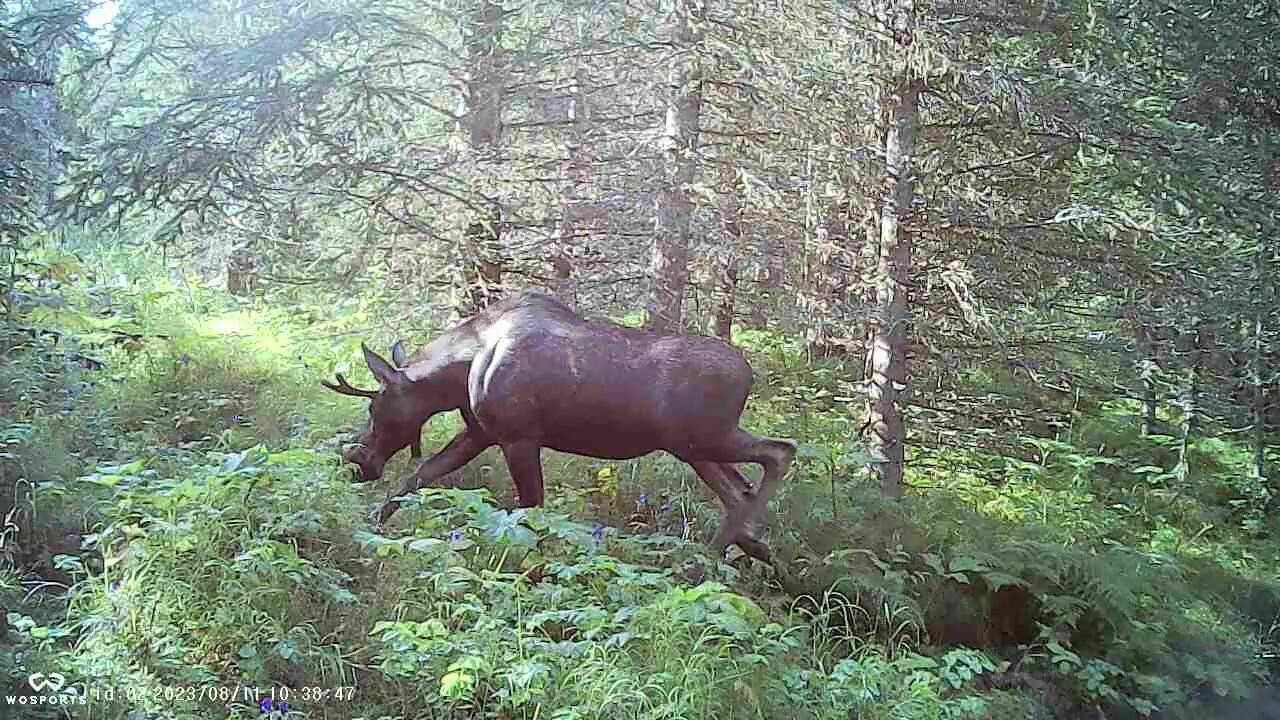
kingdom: Animalia
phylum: Chordata
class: Mammalia
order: Artiodactyla
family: Cervidae
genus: Alces
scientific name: Alces alces
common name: Moose
